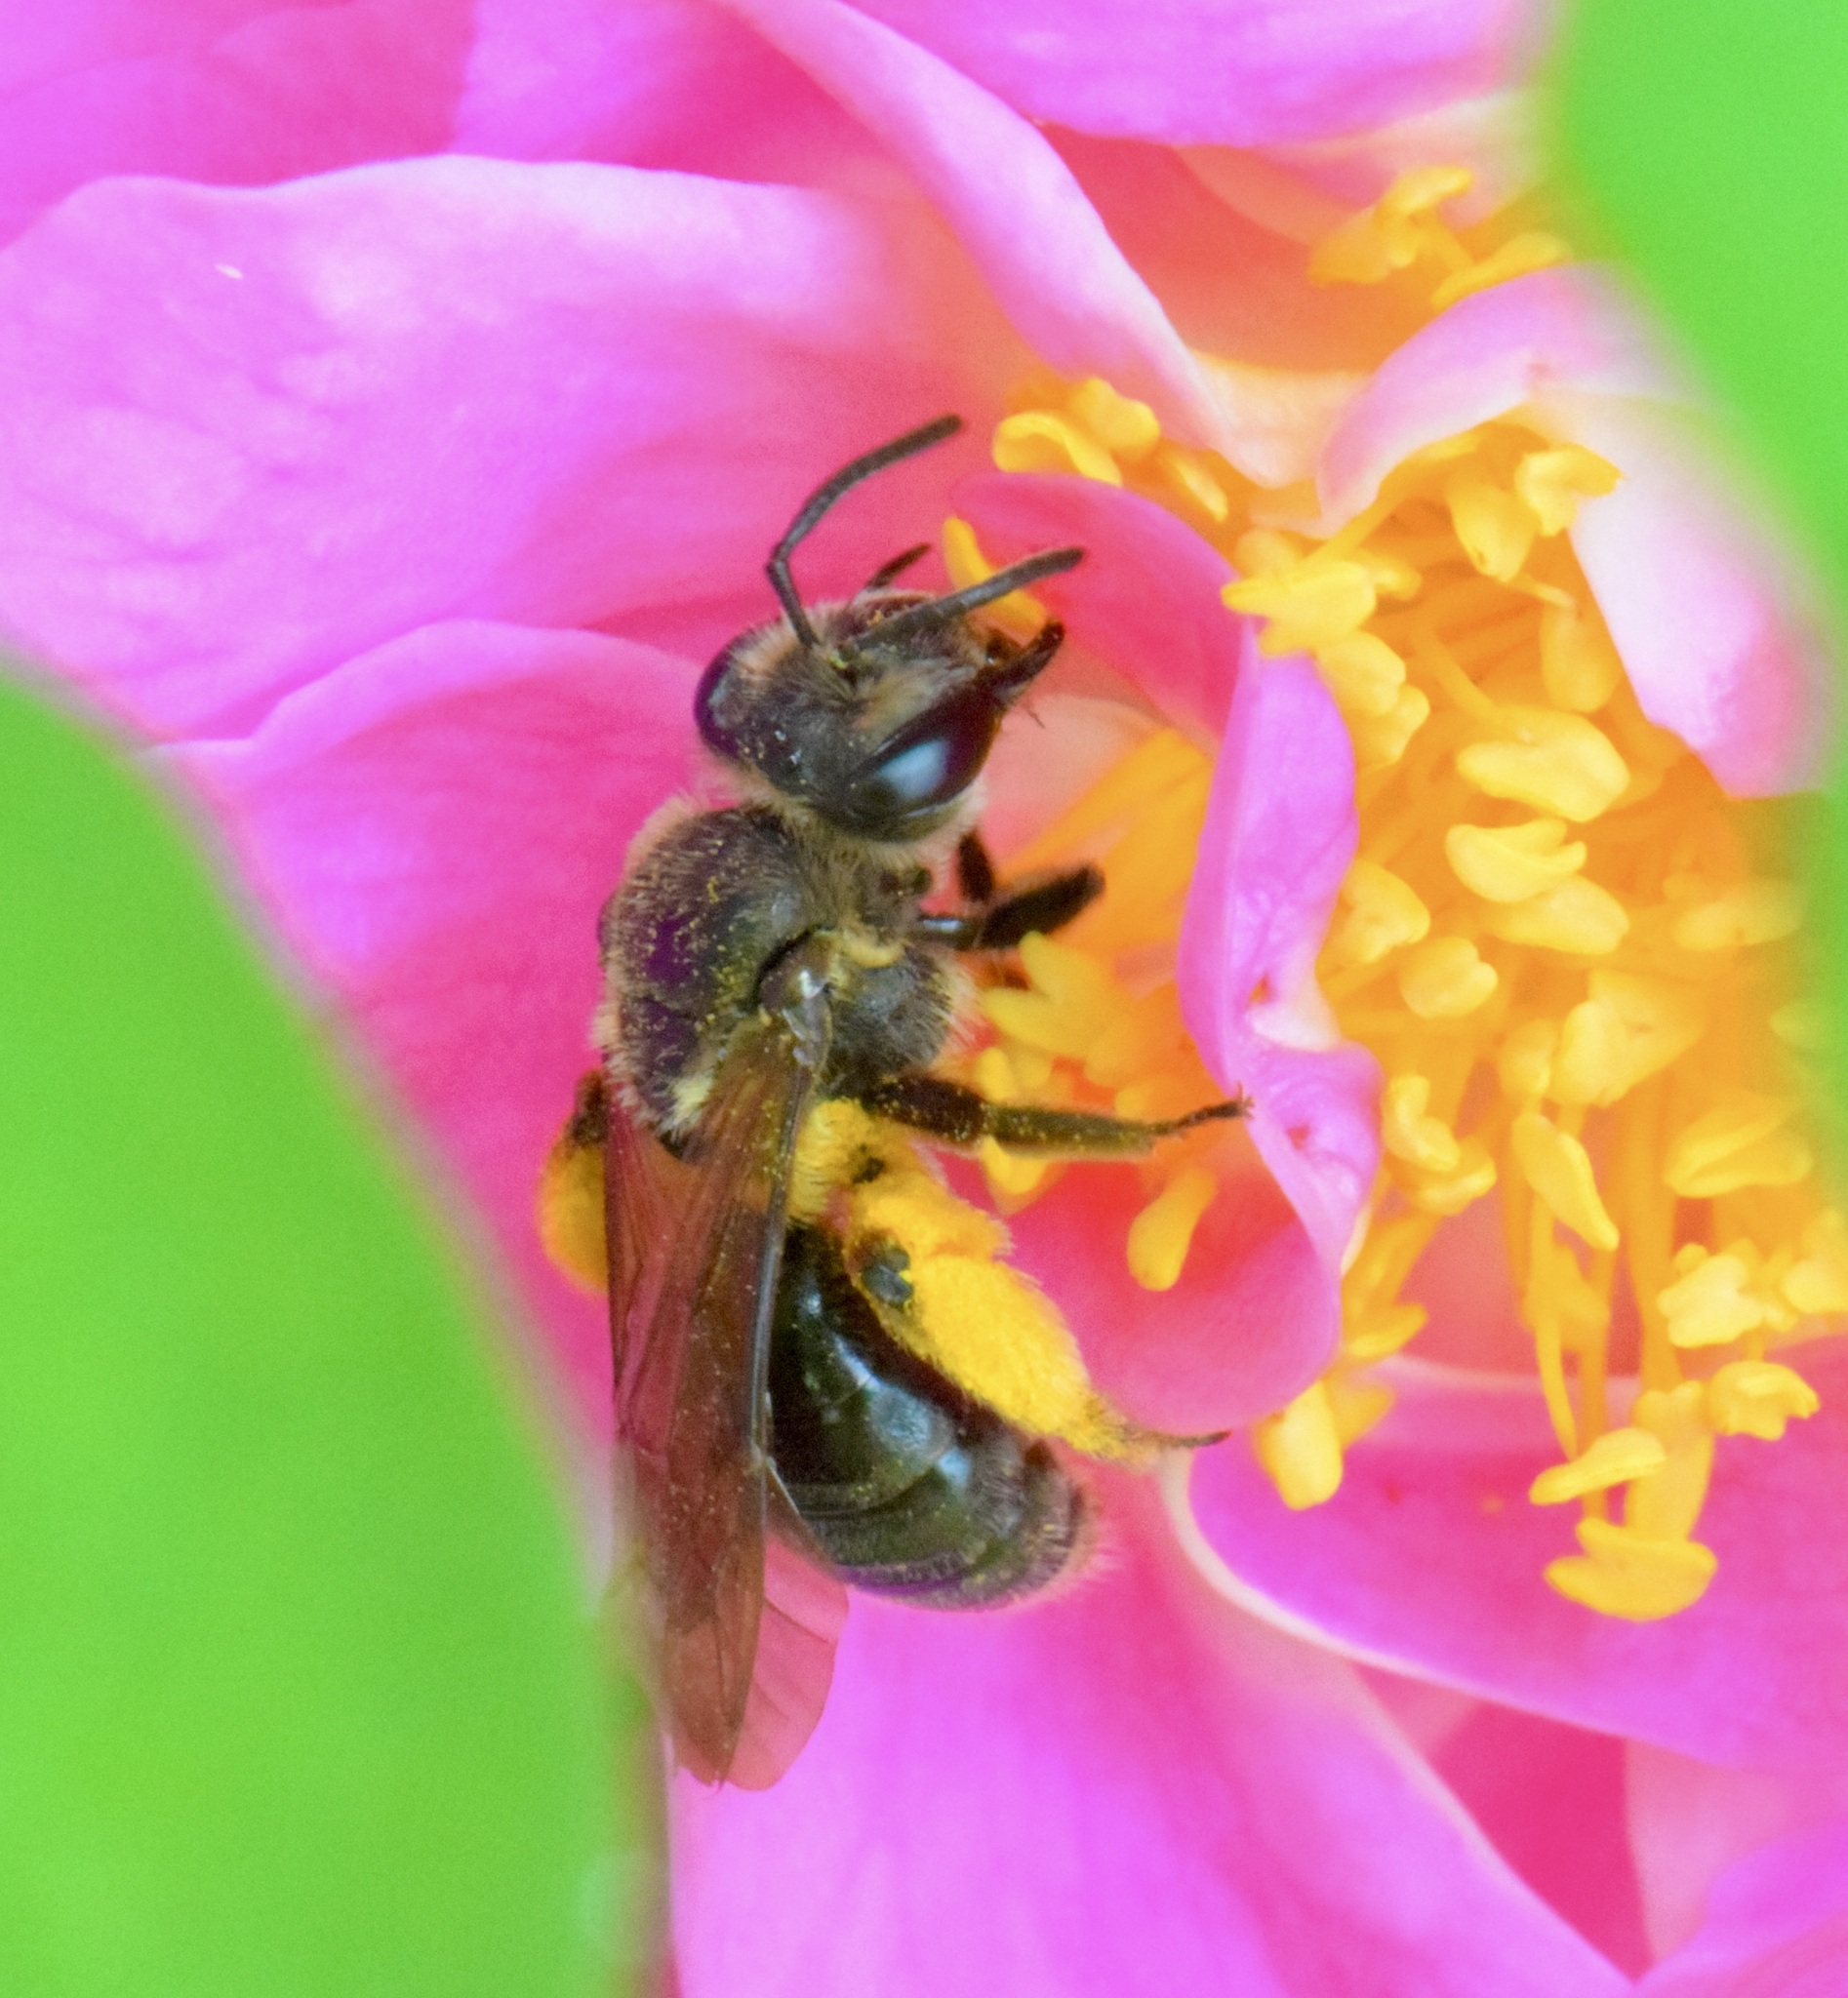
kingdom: Animalia
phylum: Arthropoda
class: Insecta
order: Hymenoptera
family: Andrenidae
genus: Andrena
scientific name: Andrena crataegi
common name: Hawthorn mining bee
